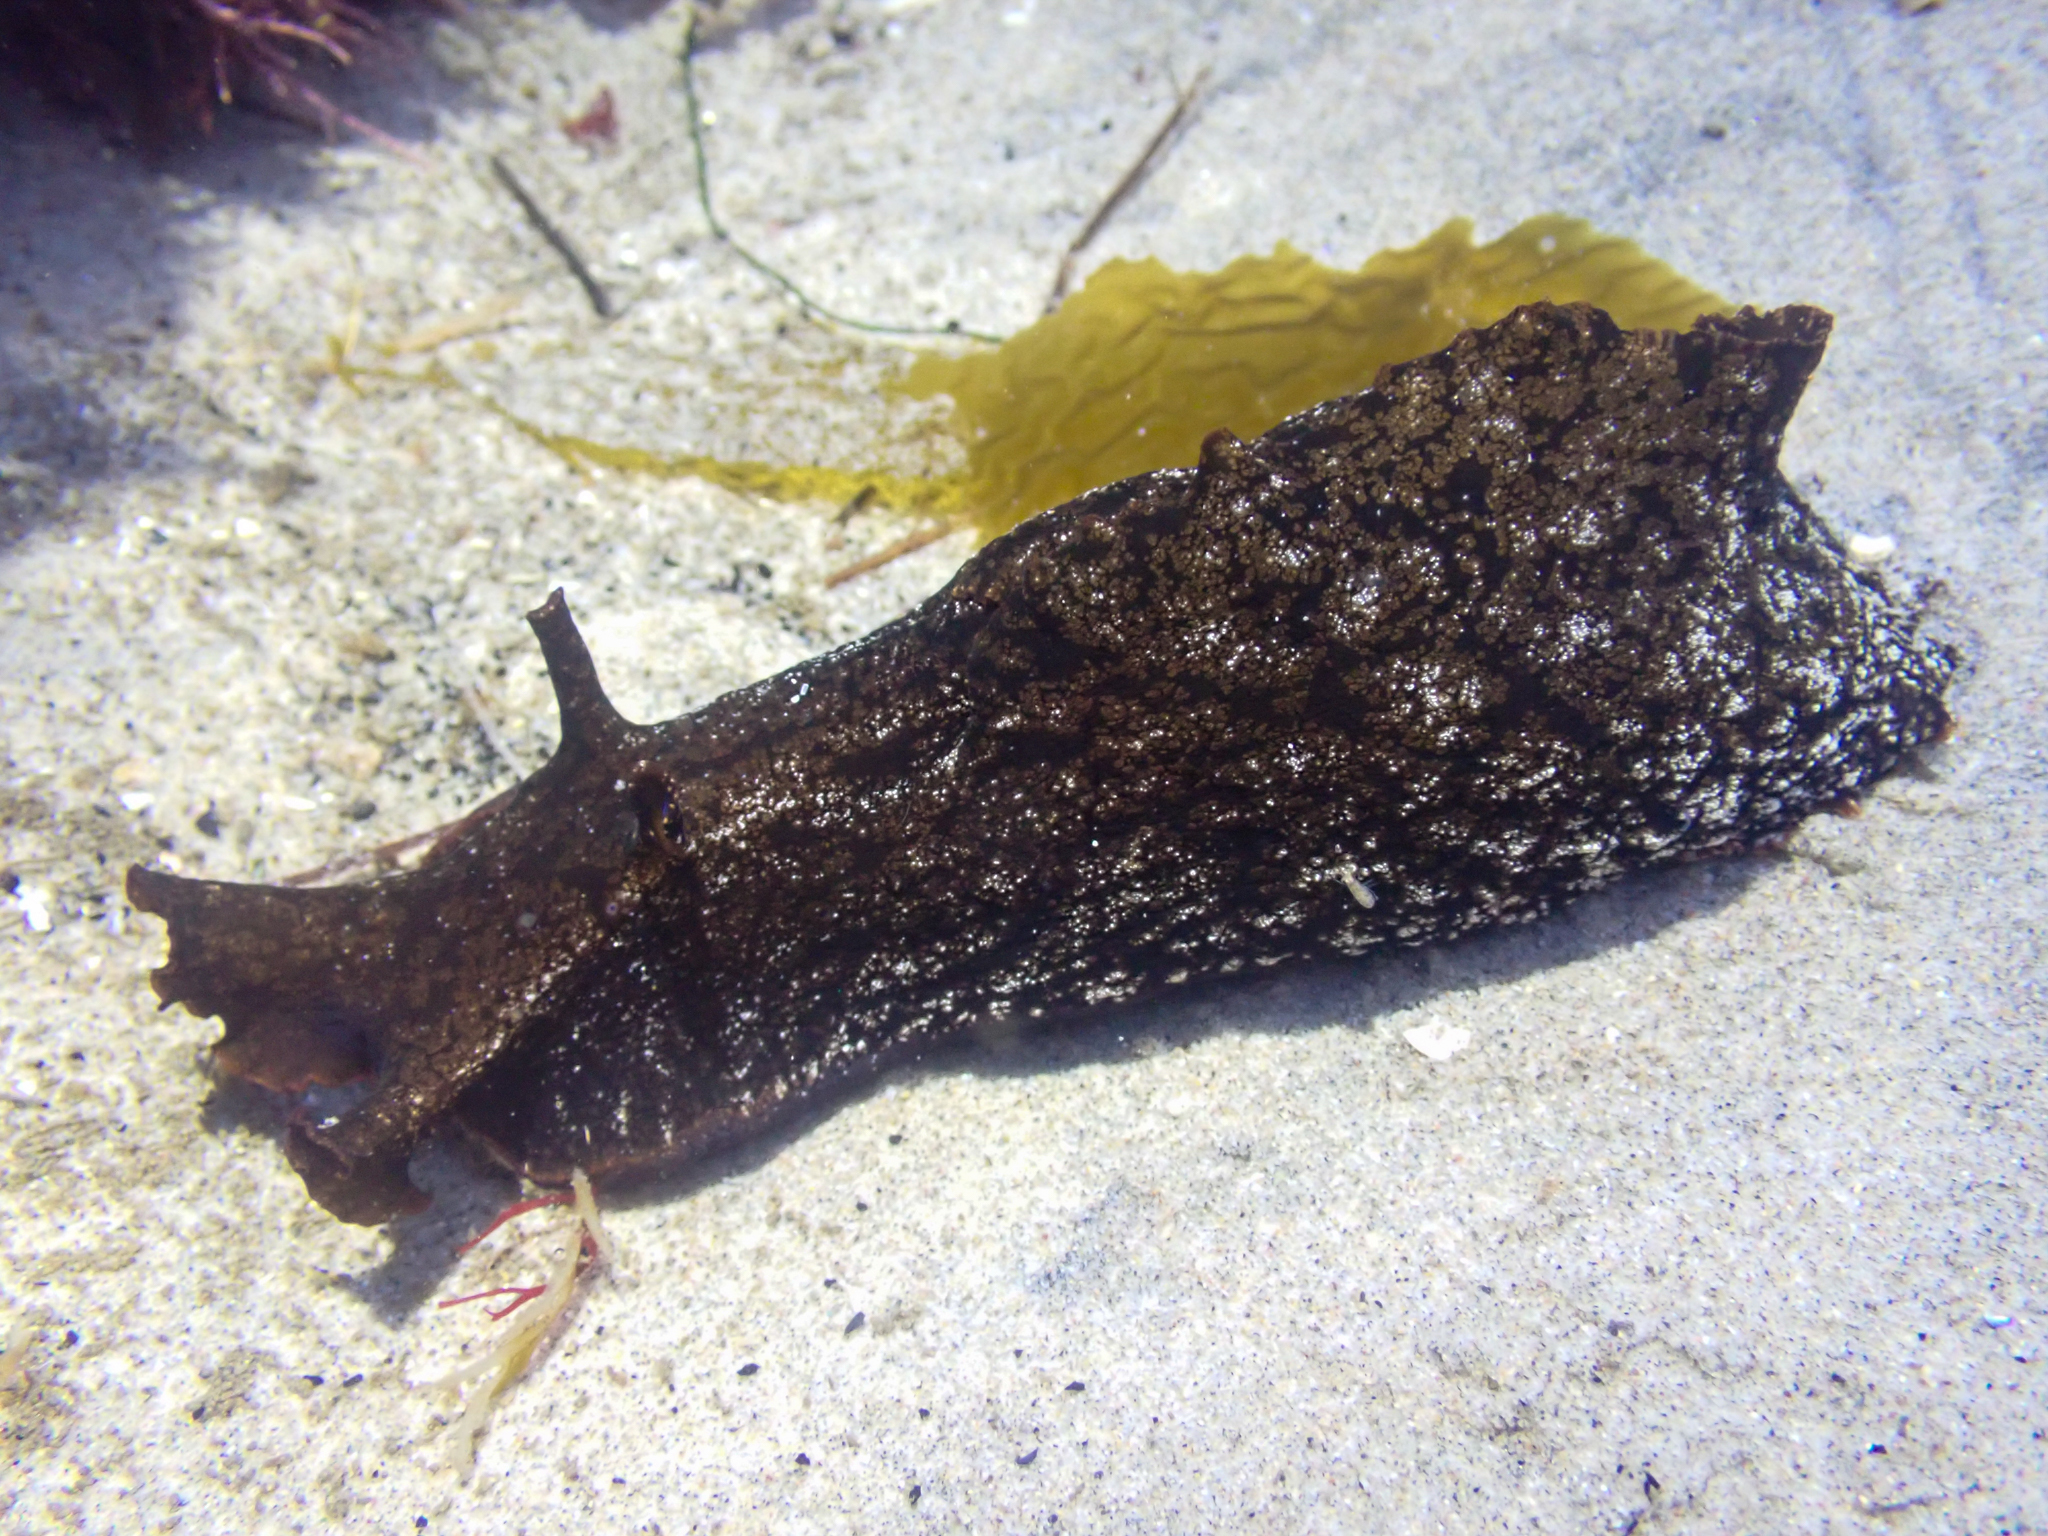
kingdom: Animalia
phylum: Mollusca
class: Gastropoda
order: Aplysiida
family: Aplysiidae
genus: Aplysia
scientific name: Aplysia californica
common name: California seahare
